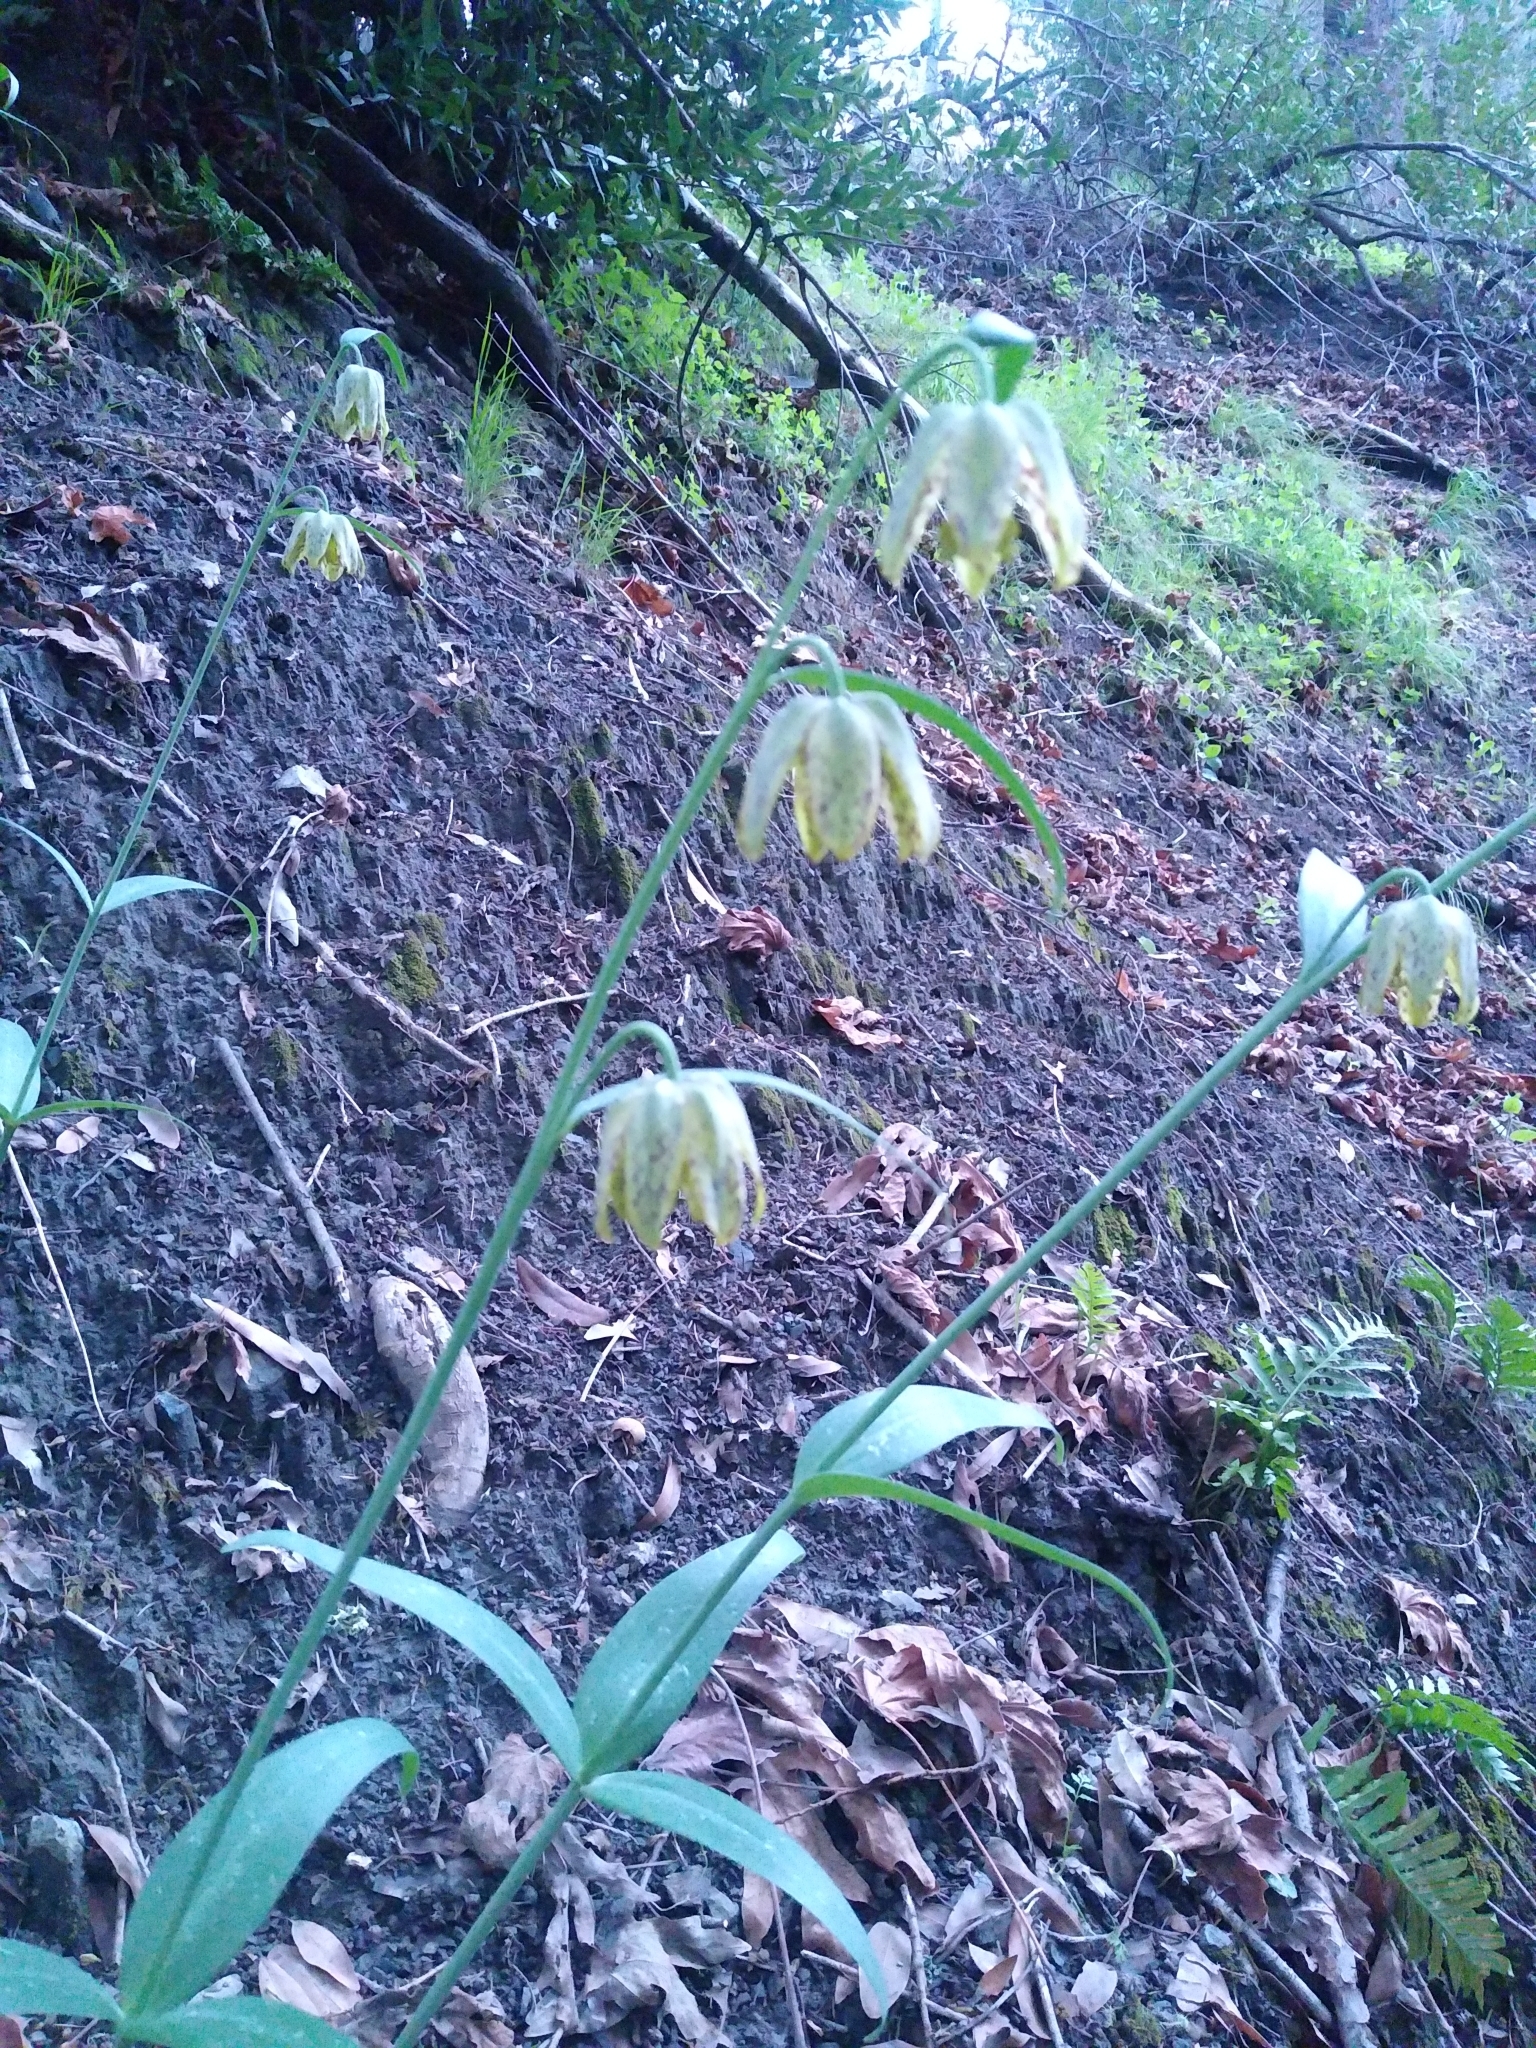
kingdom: Plantae
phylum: Tracheophyta
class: Liliopsida
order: Liliales
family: Liliaceae
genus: Fritillaria
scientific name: Fritillaria affinis
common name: Ojai fritillary
